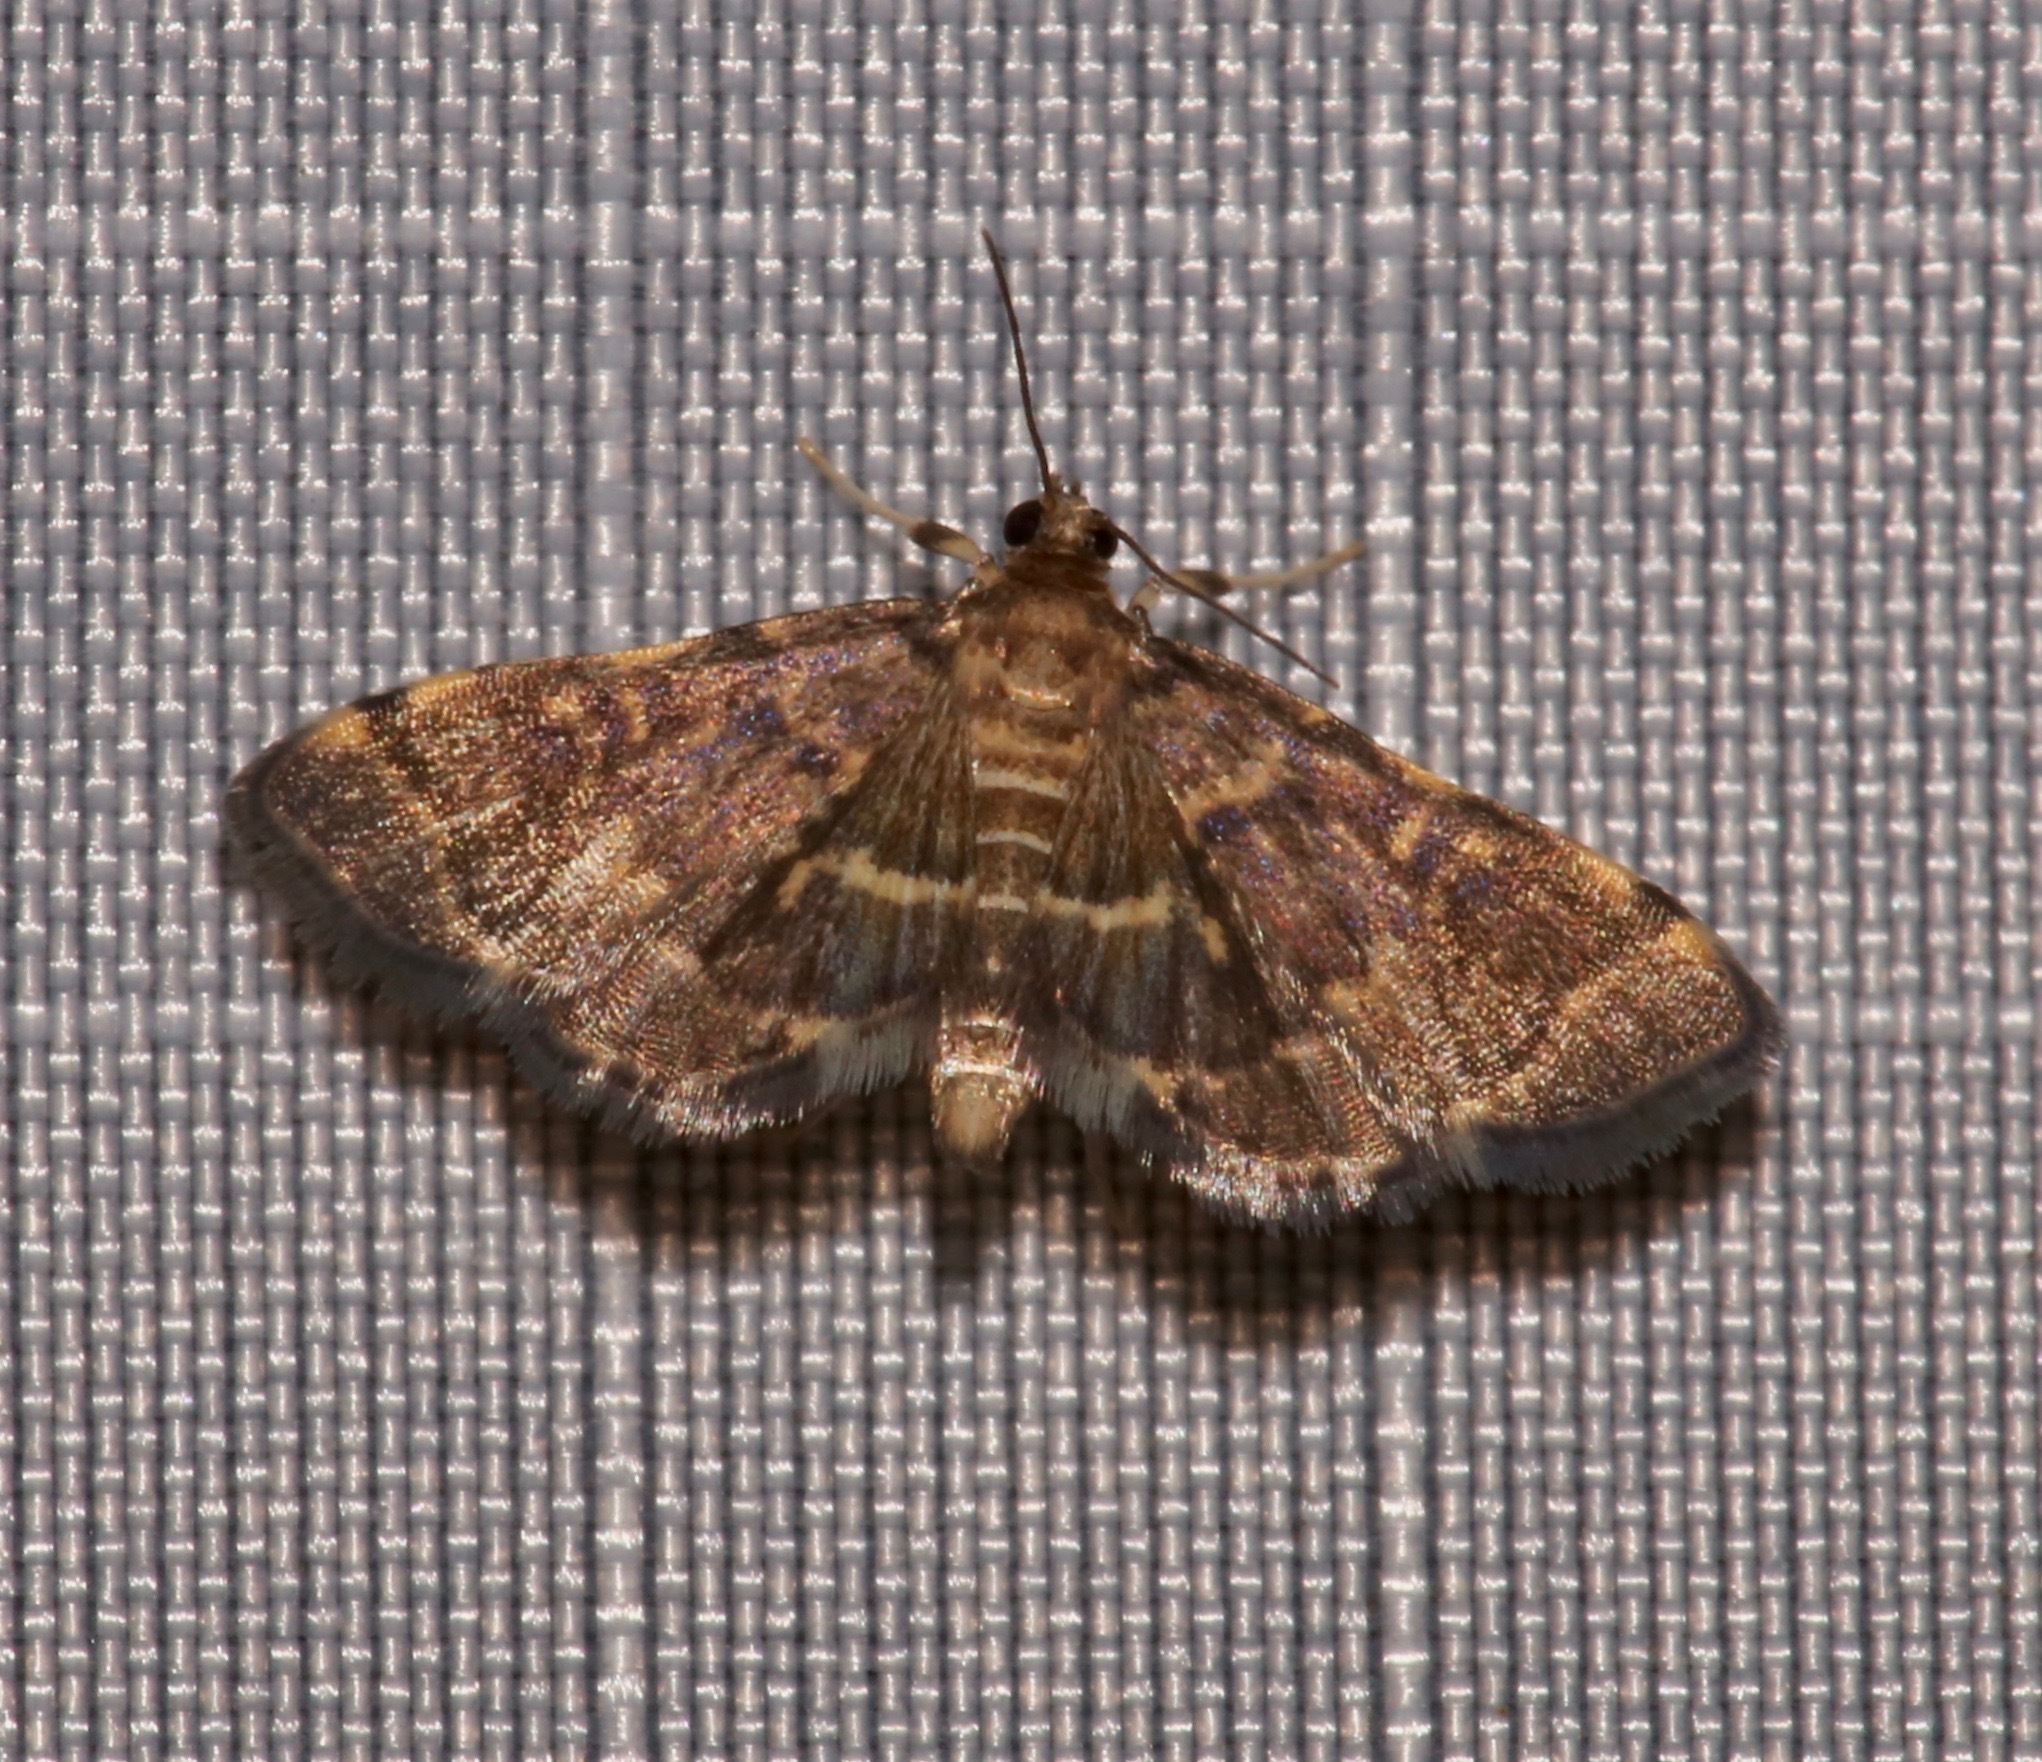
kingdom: Animalia
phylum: Arthropoda
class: Insecta
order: Lepidoptera
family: Crambidae
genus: Anageshna
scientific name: Anageshna primordialis
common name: Yellow-spotted webworm moth
